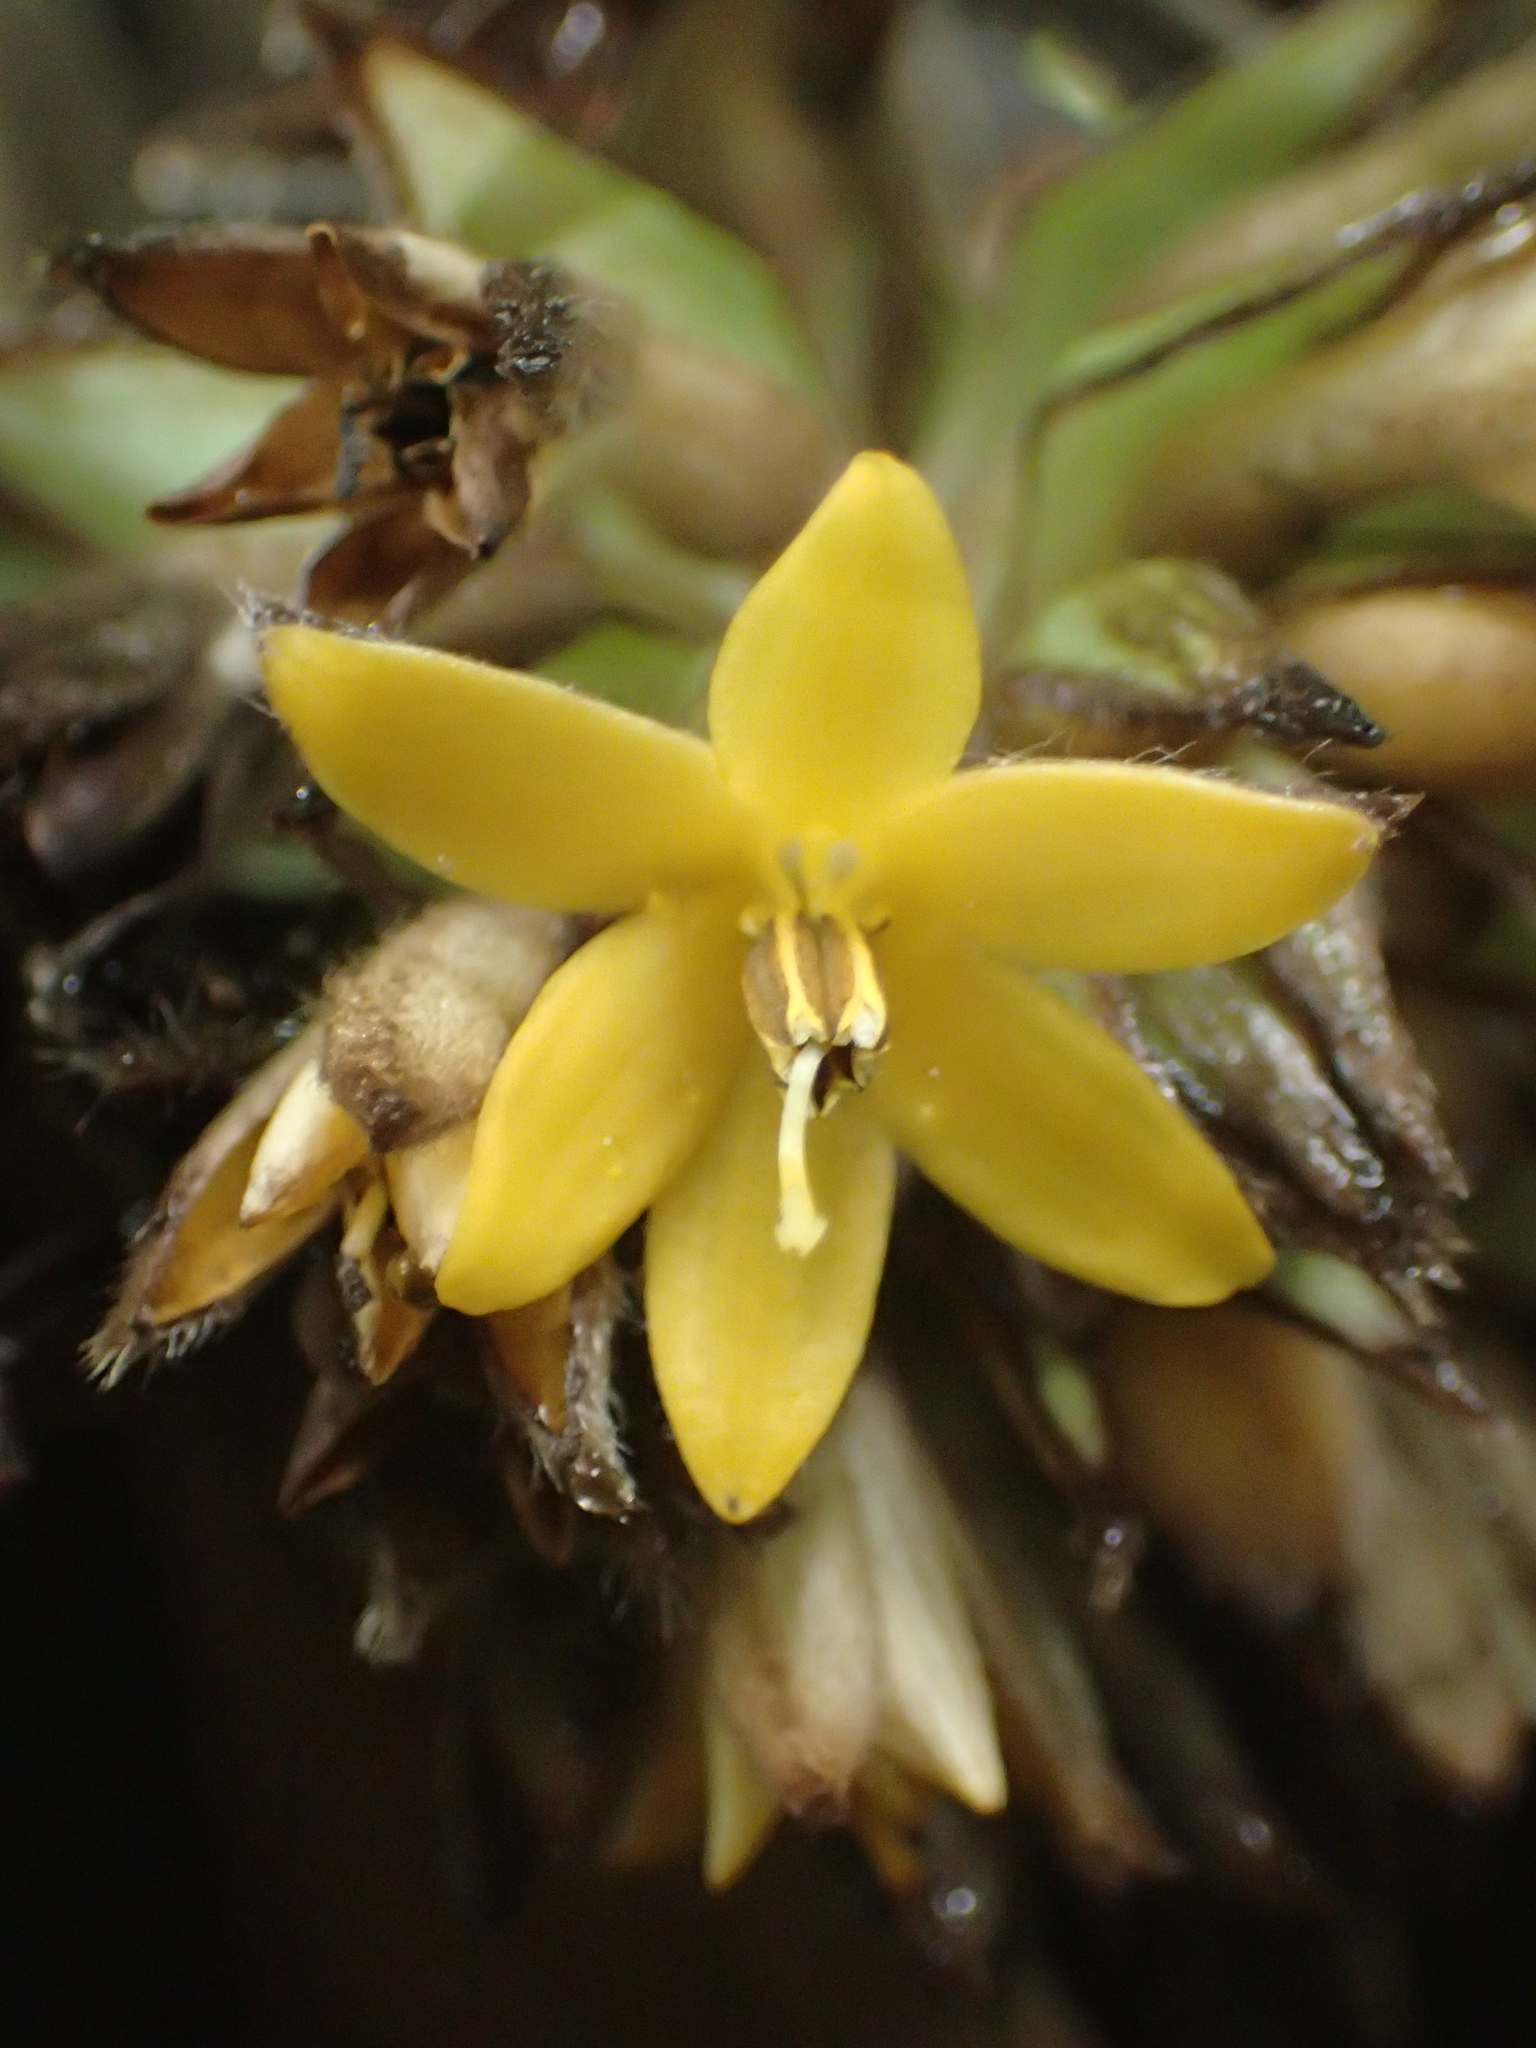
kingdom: Plantae
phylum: Tracheophyta
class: Liliopsida
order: Asparagales
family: Hypoxidaceae
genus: Curculigo
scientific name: Curculigo capitulata
